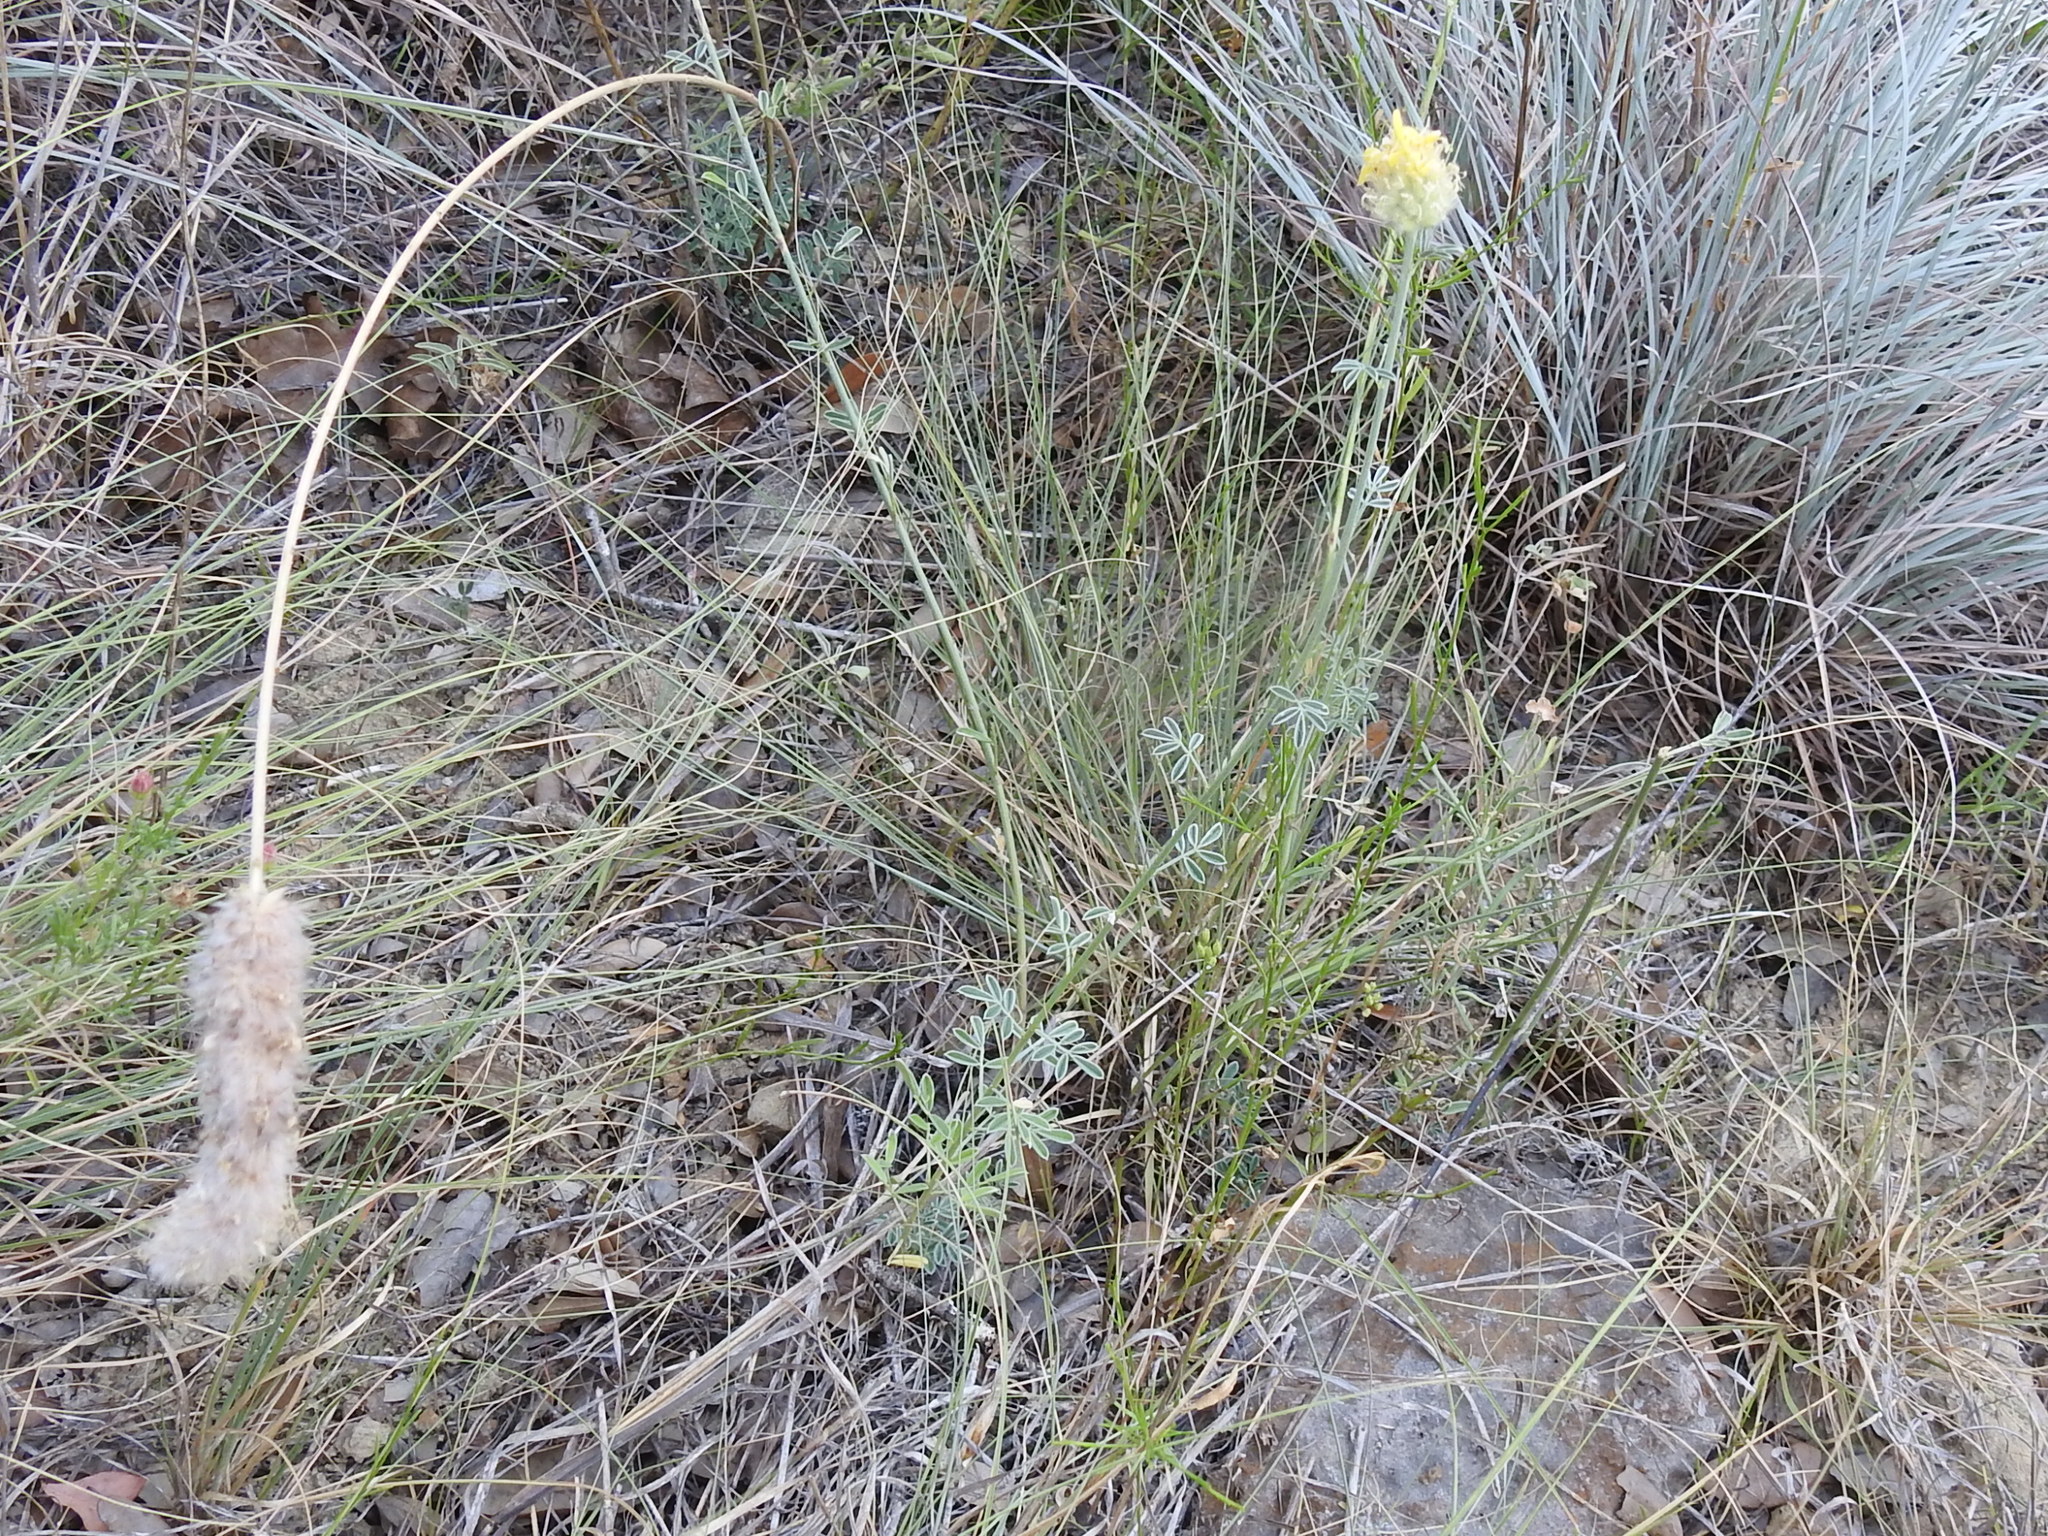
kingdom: Plantae
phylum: Tracheophyta
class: Magnoliopsida
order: Fabales
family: Fabaceae
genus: Dalea
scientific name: Dalea aurea
